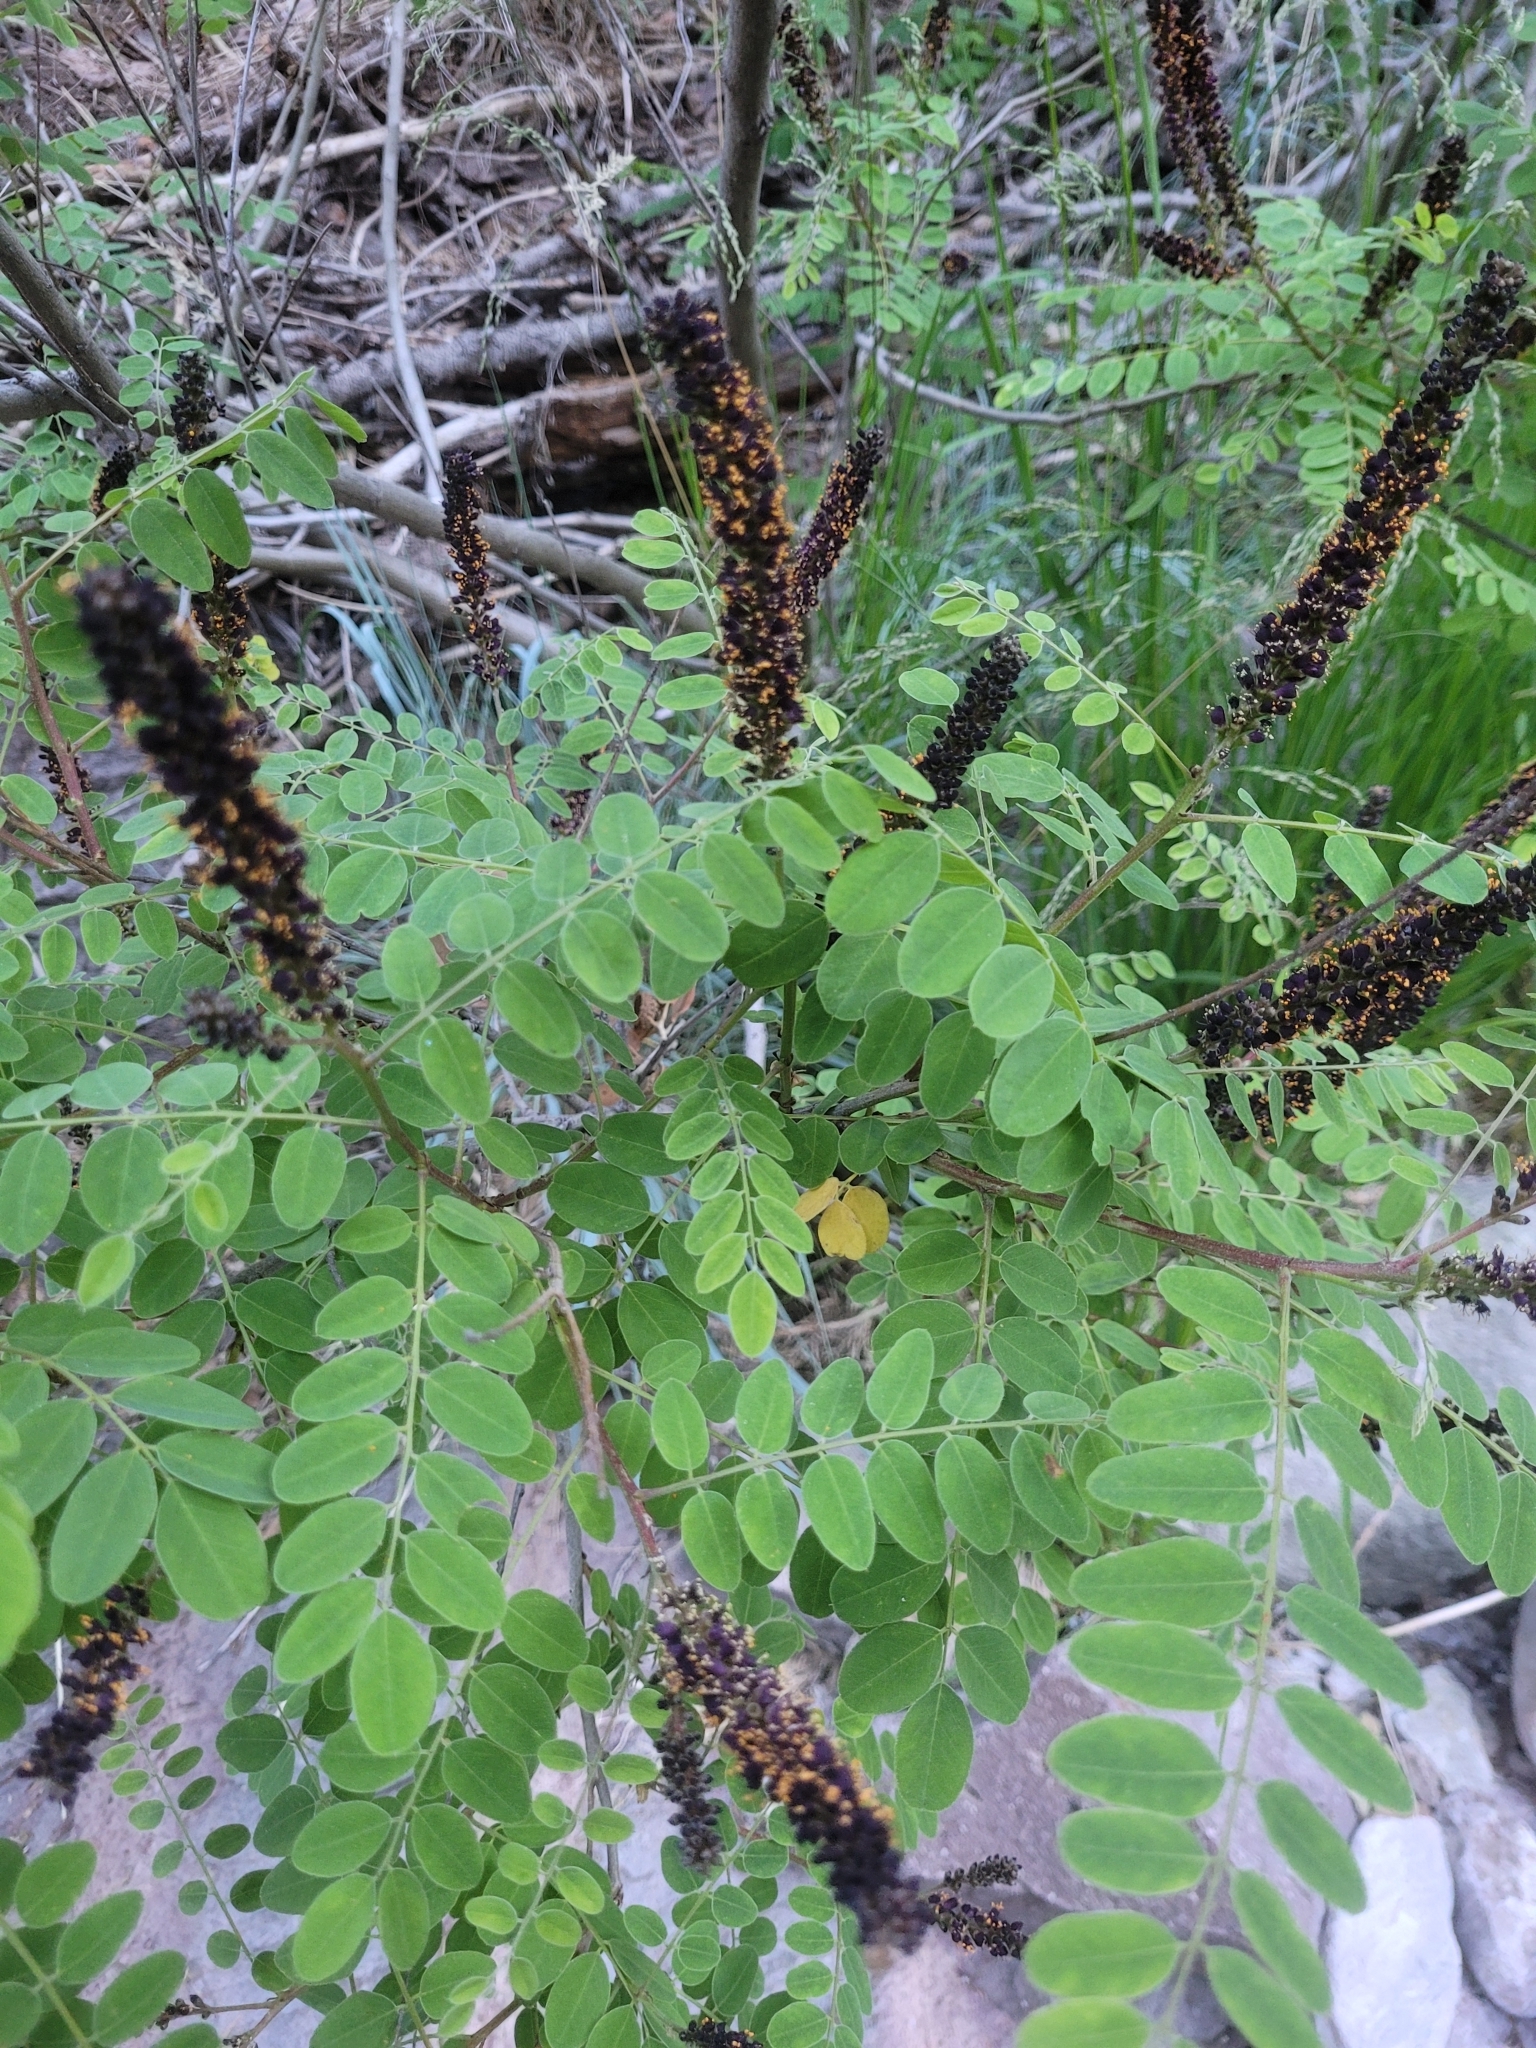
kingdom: Plantae
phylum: Tracheophyta
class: Magnoliopsida
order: Fabales
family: Fabaceae
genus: Amorpha
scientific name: Amorpha fruticosa
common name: False indigo
